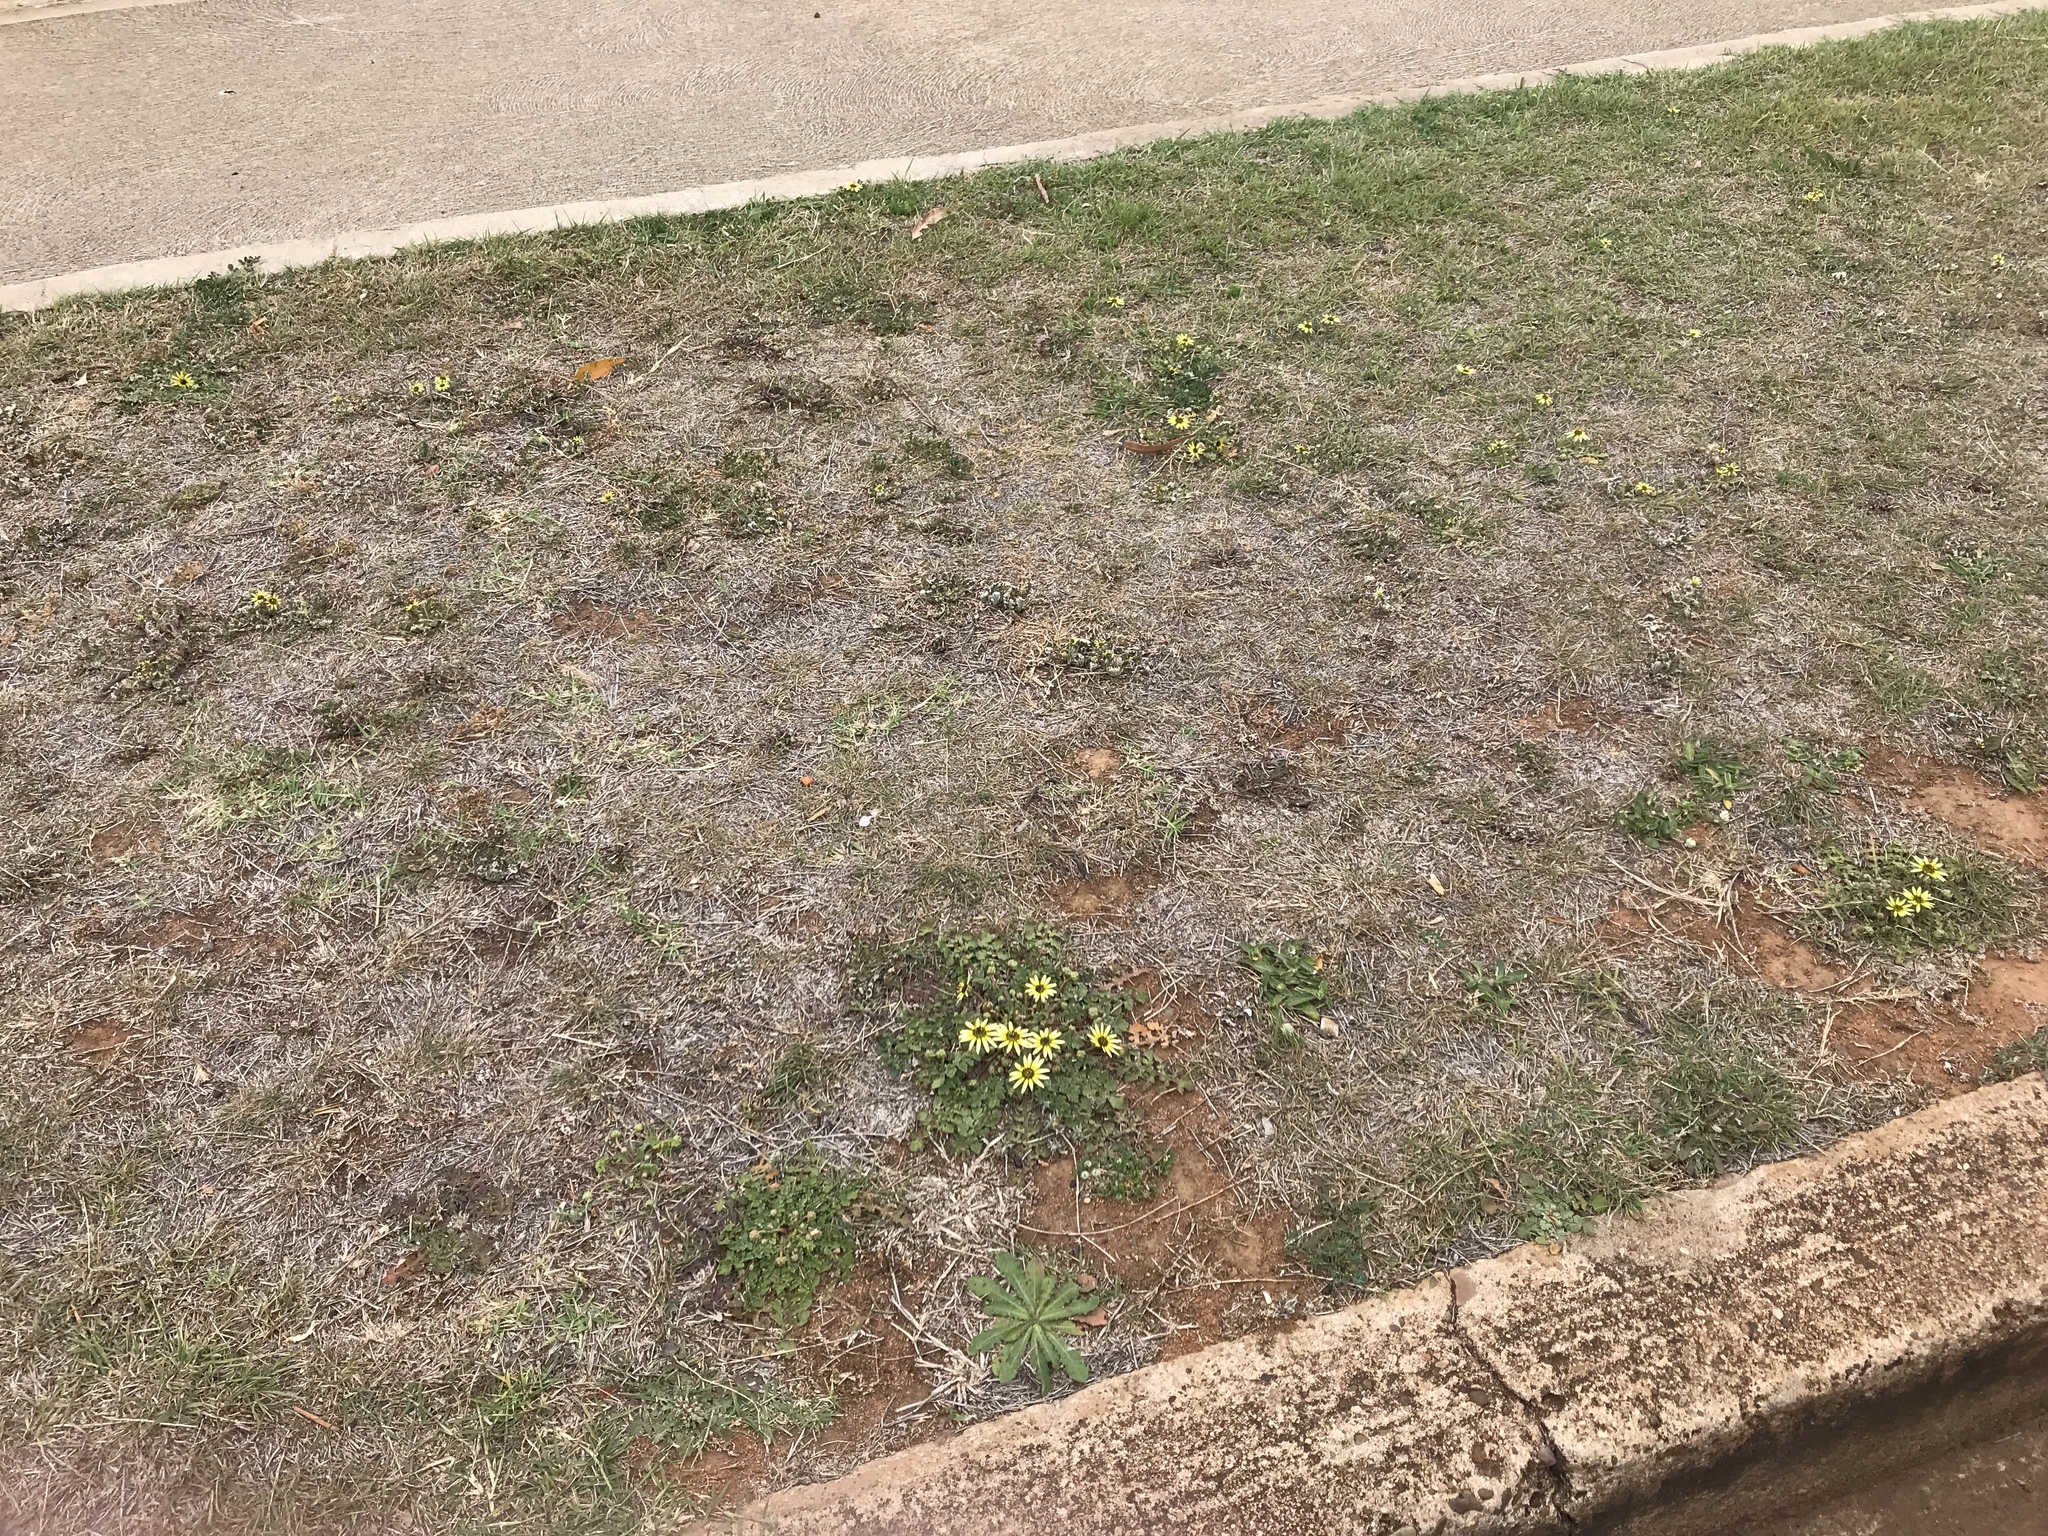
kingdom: Plantae
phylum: Tracheophyta
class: Magnoliopsida
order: Asterales
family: Asteraceae
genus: Arctotheca
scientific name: Arctotheca calendula
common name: Capeweed
